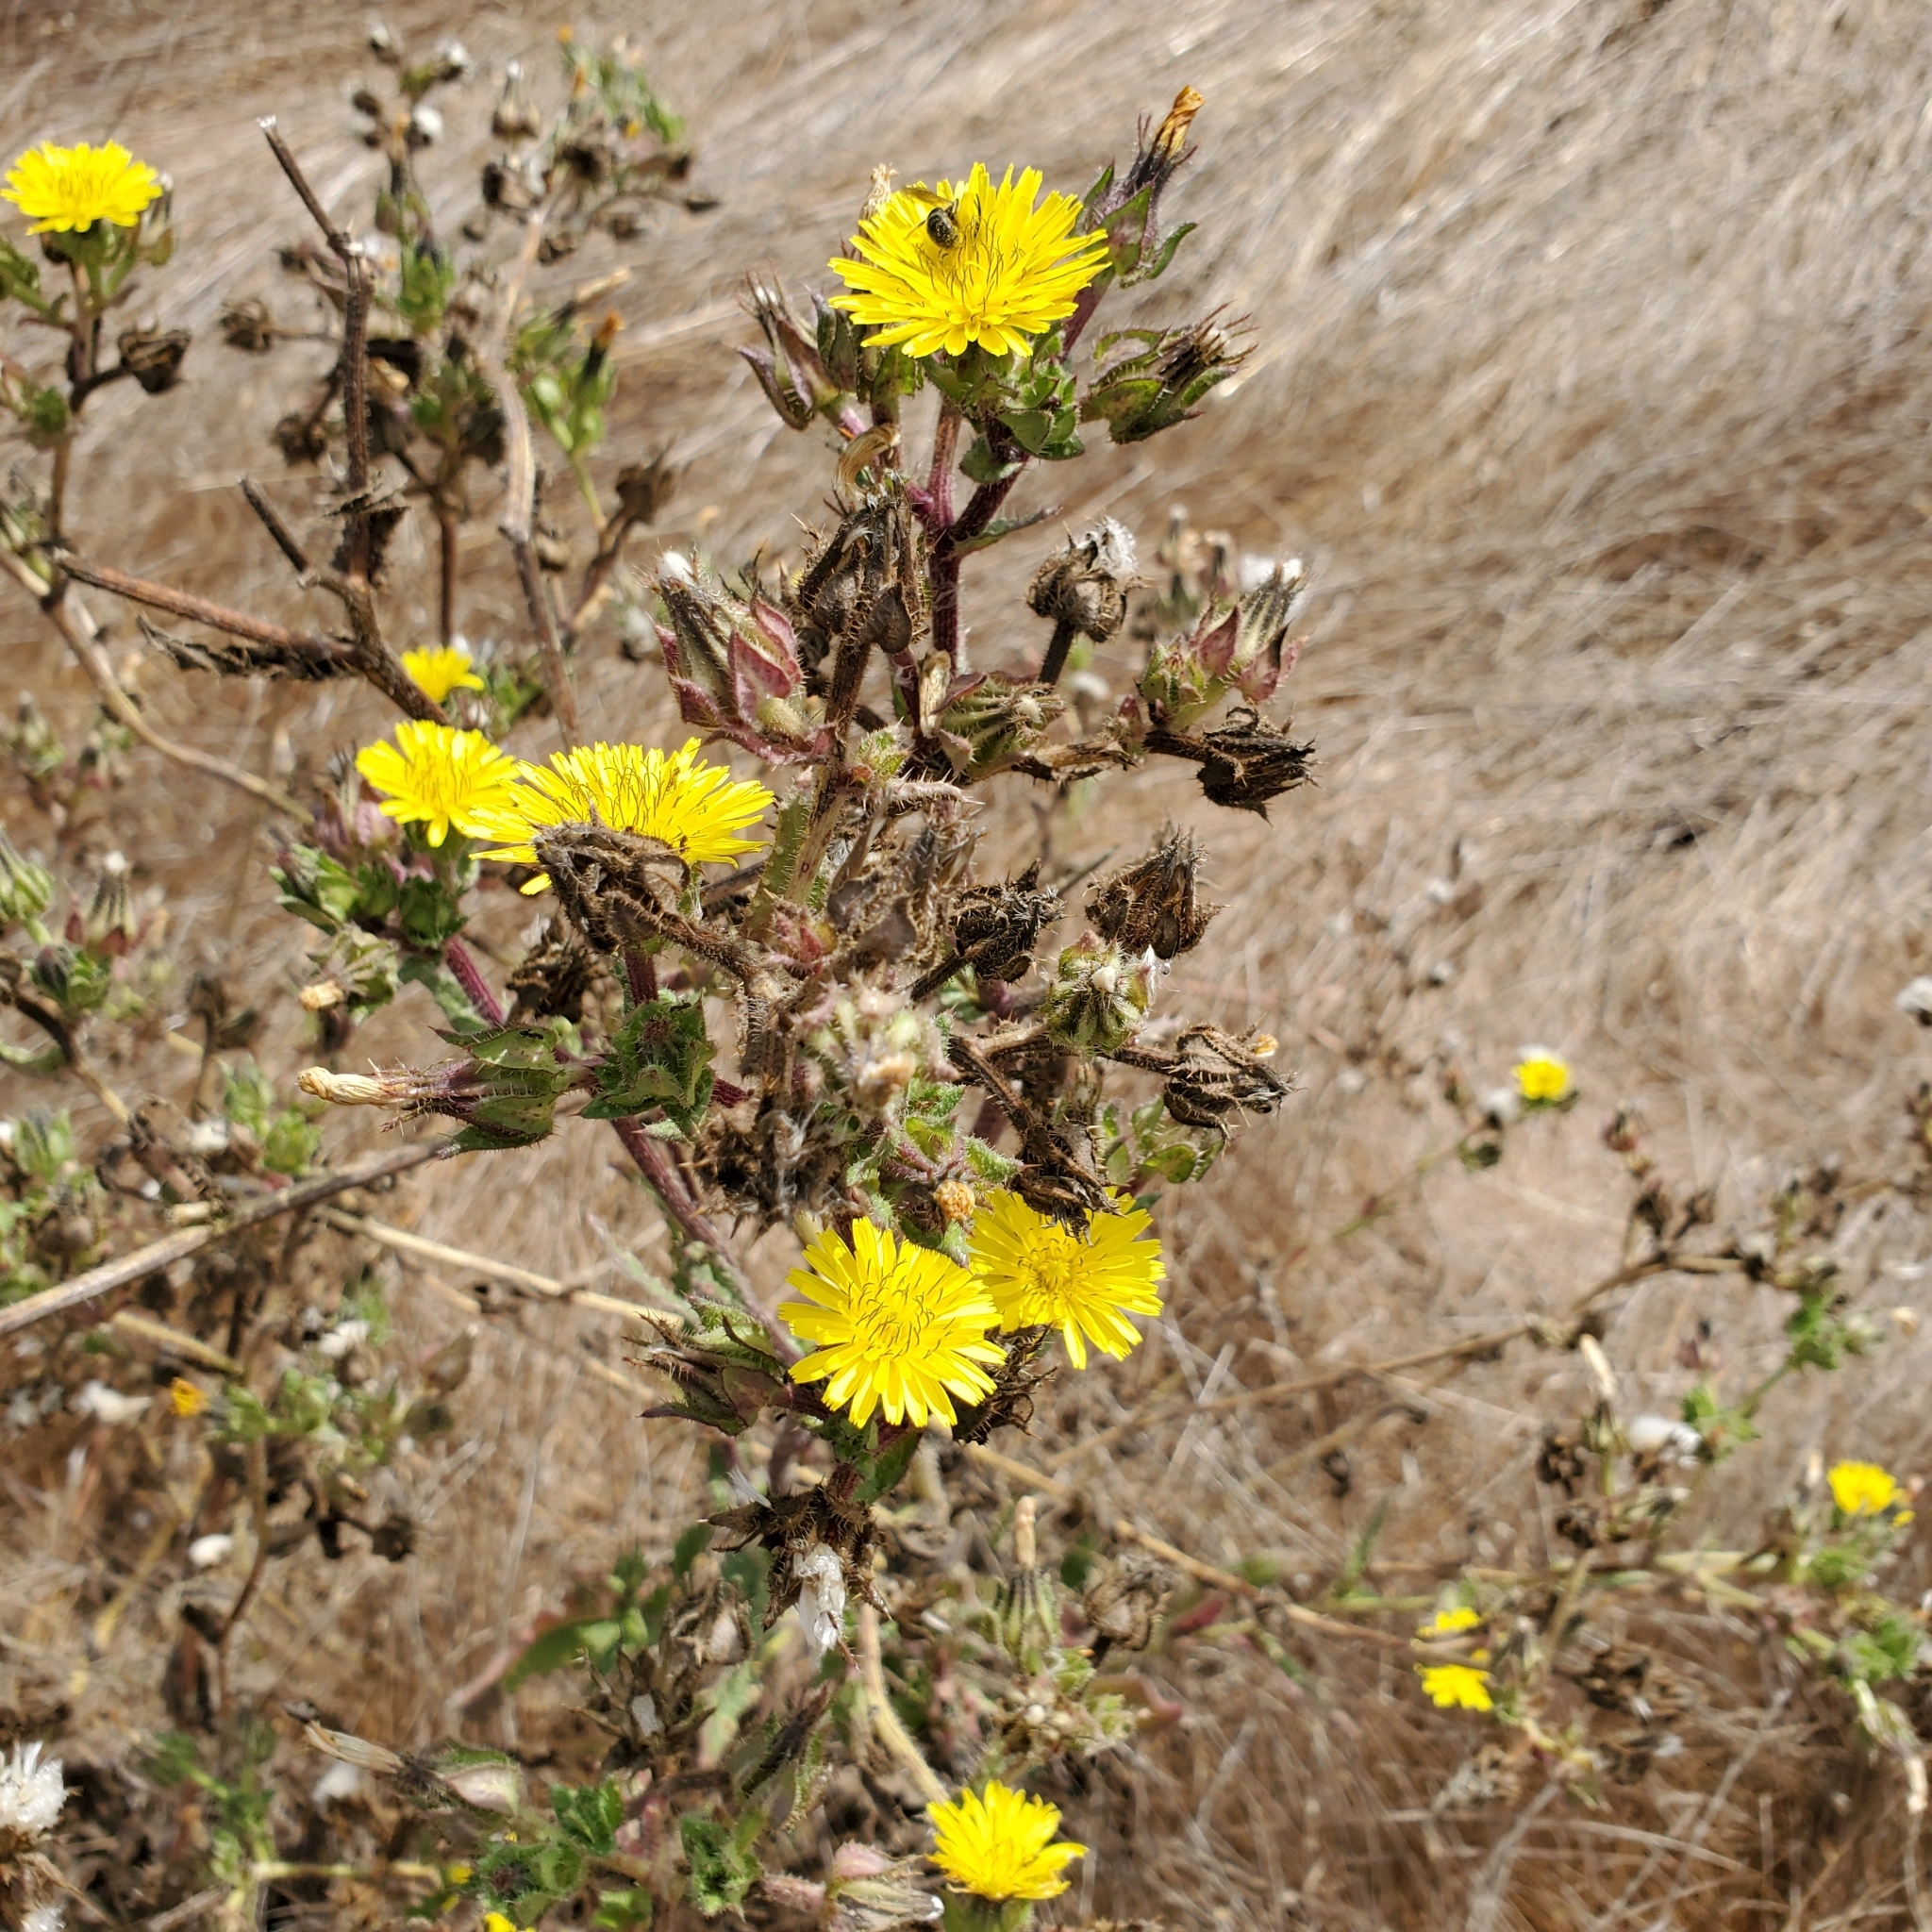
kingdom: Plantae
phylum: Tracheophyta
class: Magnoliopsida
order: Asterales
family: Asteraceae
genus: Helminthotheca
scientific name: Helminthotheca echioides
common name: Ox-tongue
